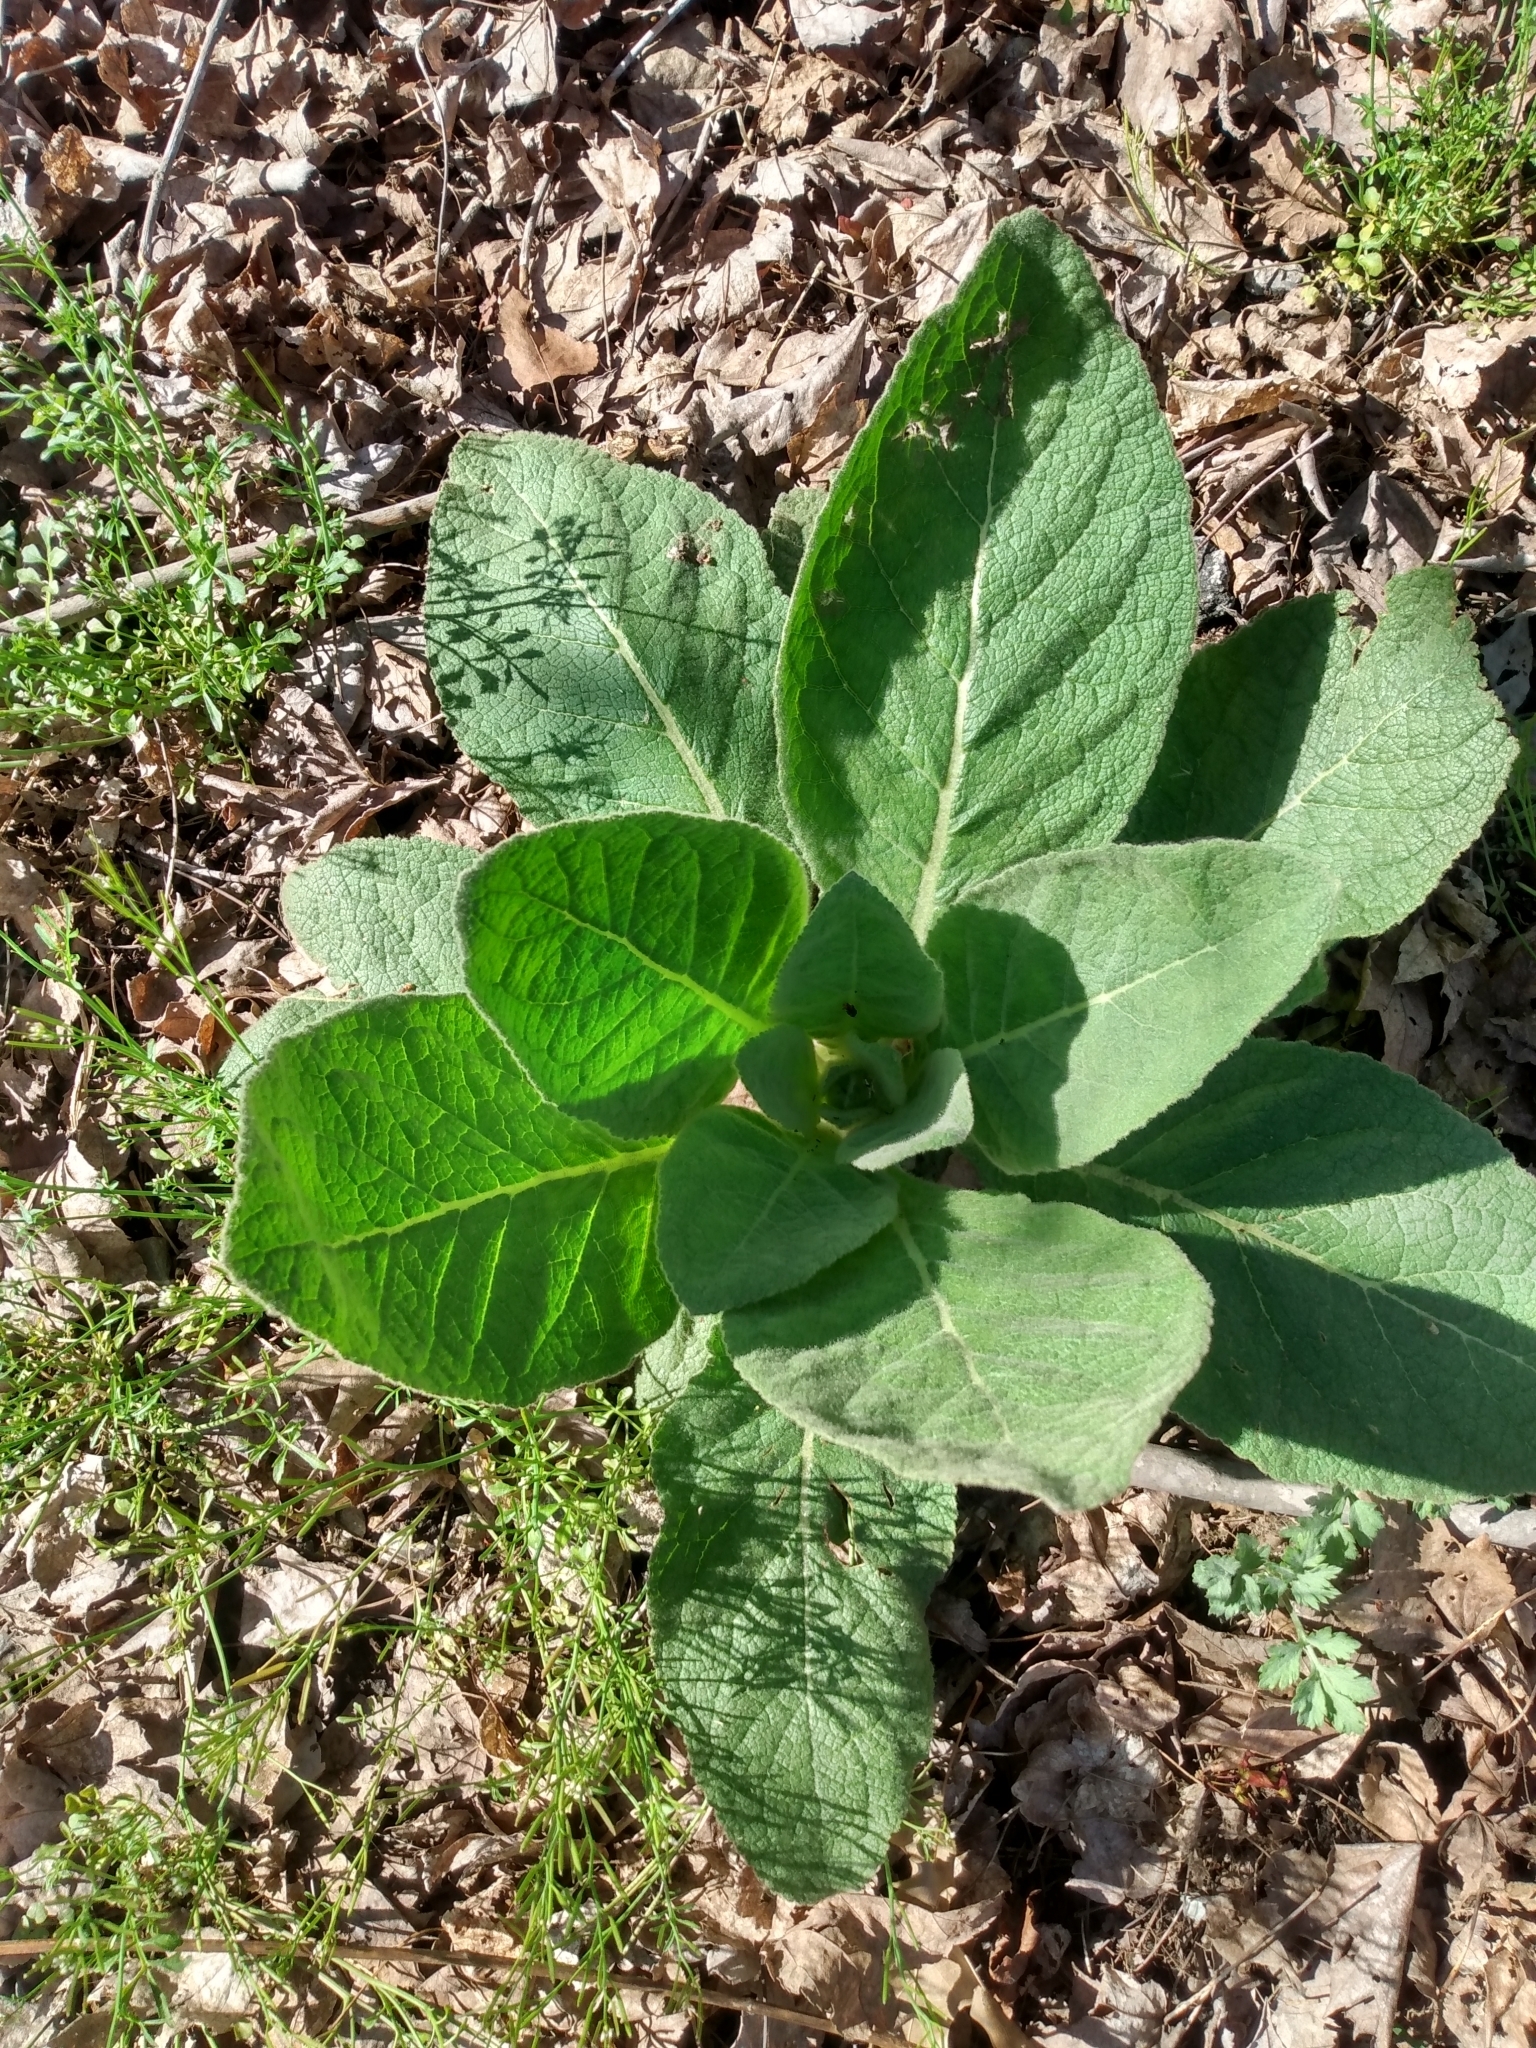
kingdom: Plantae
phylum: Tracheophyta
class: Magnoliopsida
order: Lamiales
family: Scrophulariaceae
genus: Verbascum
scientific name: Verbascum thapsus
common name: Common mullein
